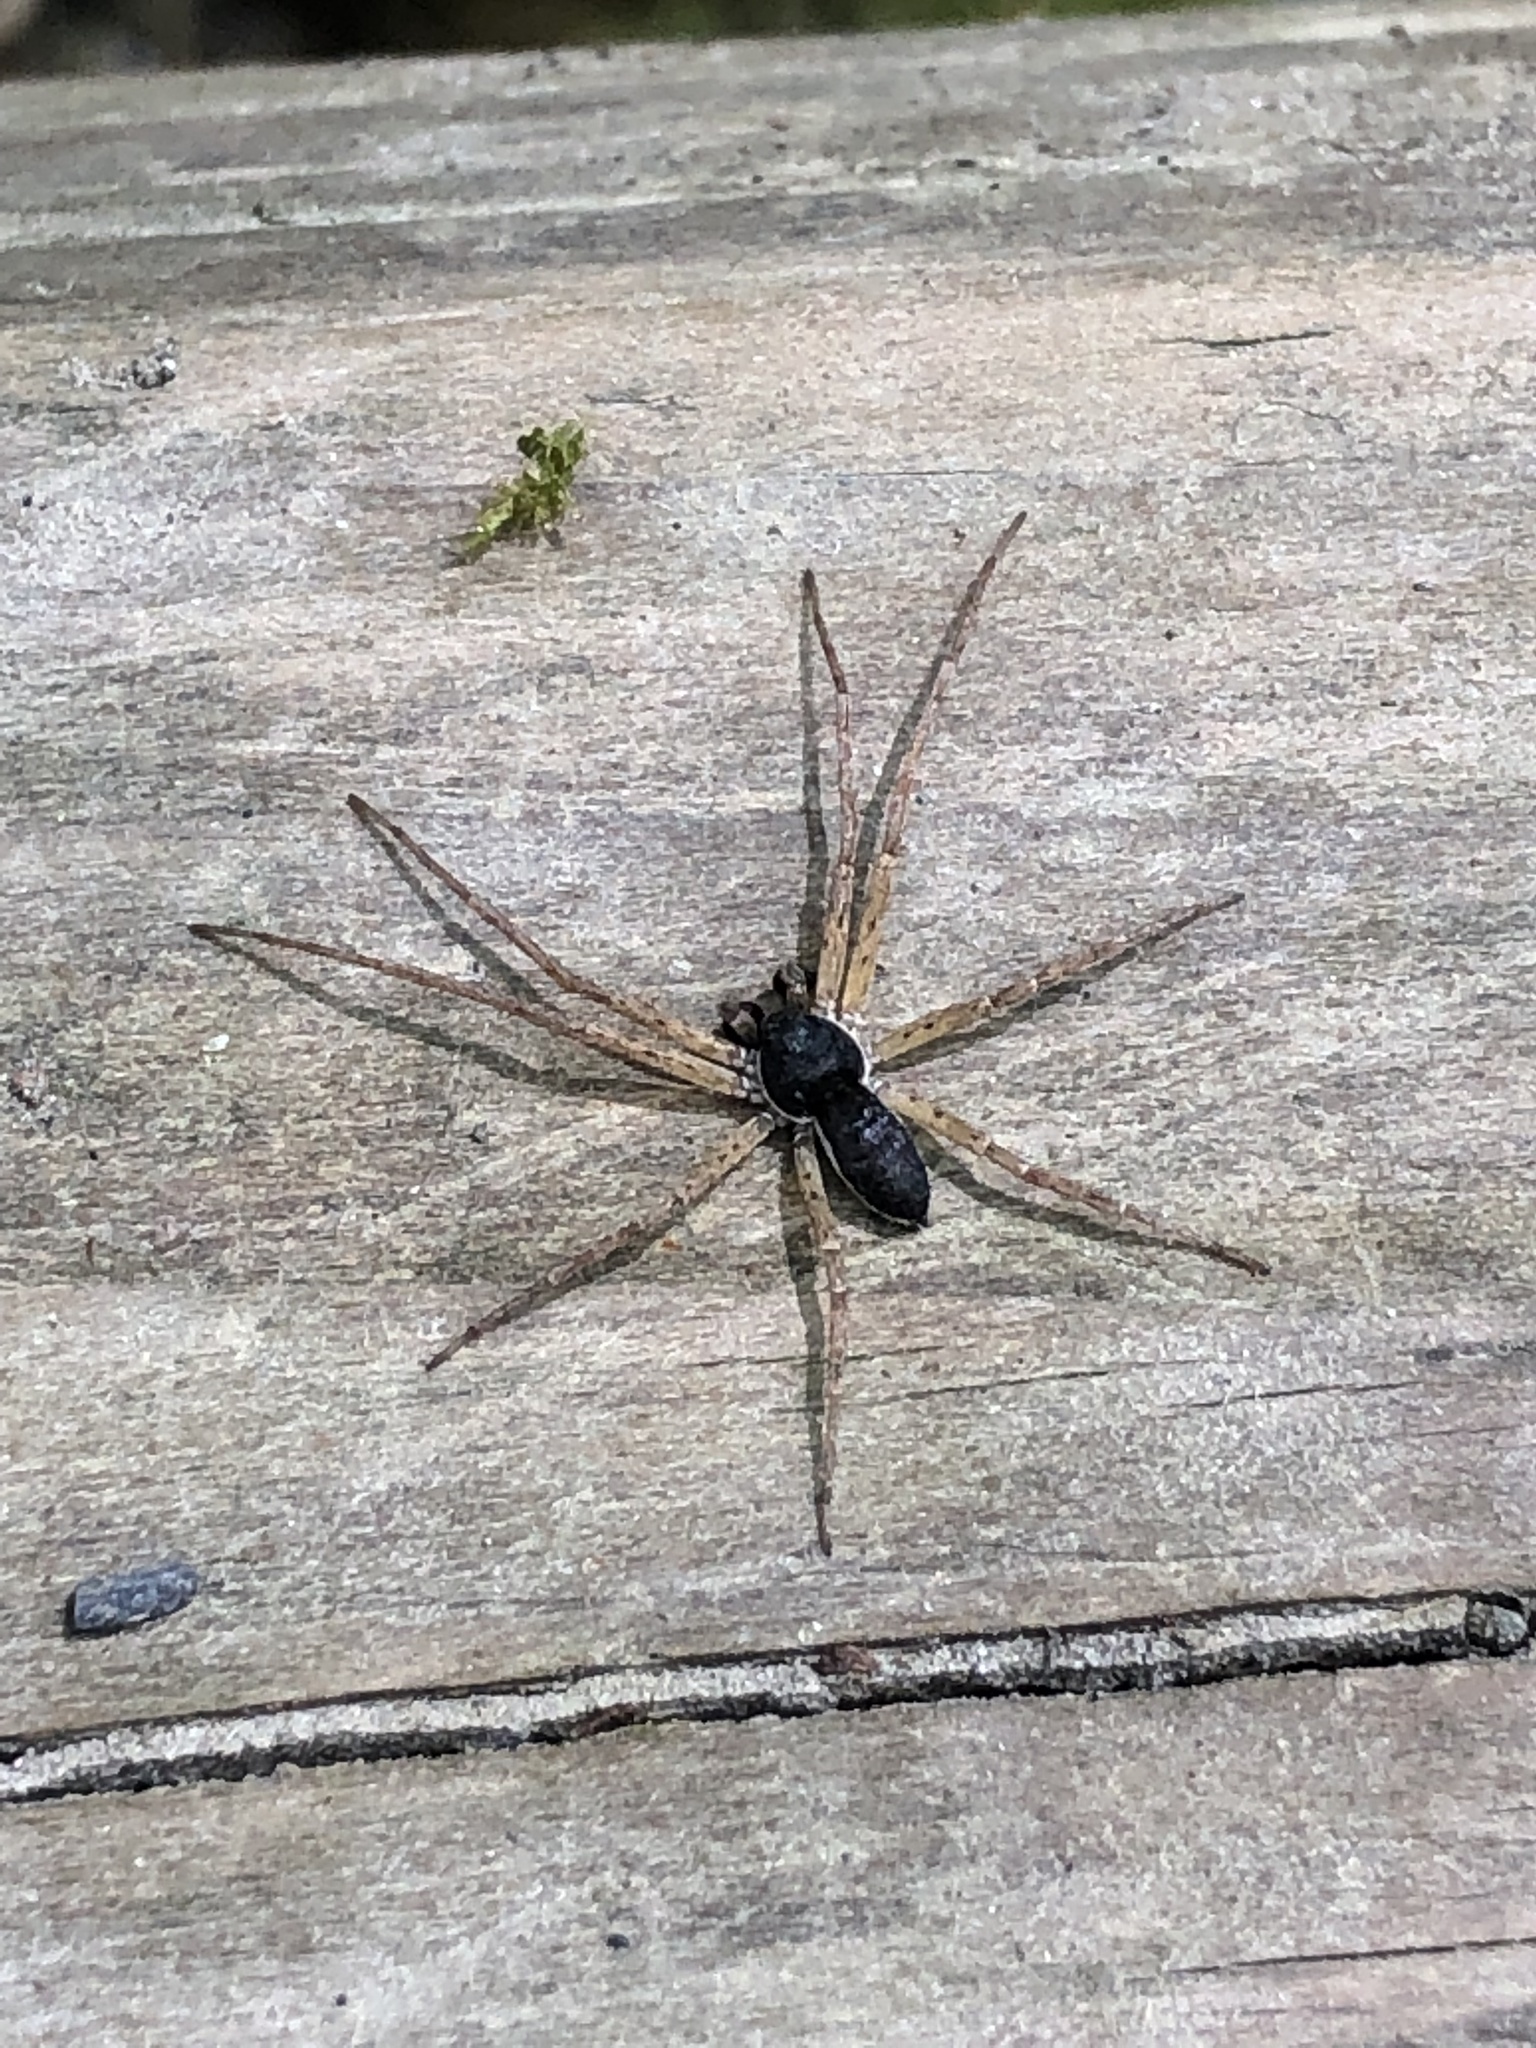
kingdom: Animalia
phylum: Arthropoda
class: Arachnida
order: Araneae
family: Philodromidae
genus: Philodromus
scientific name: Philodromus dispar
